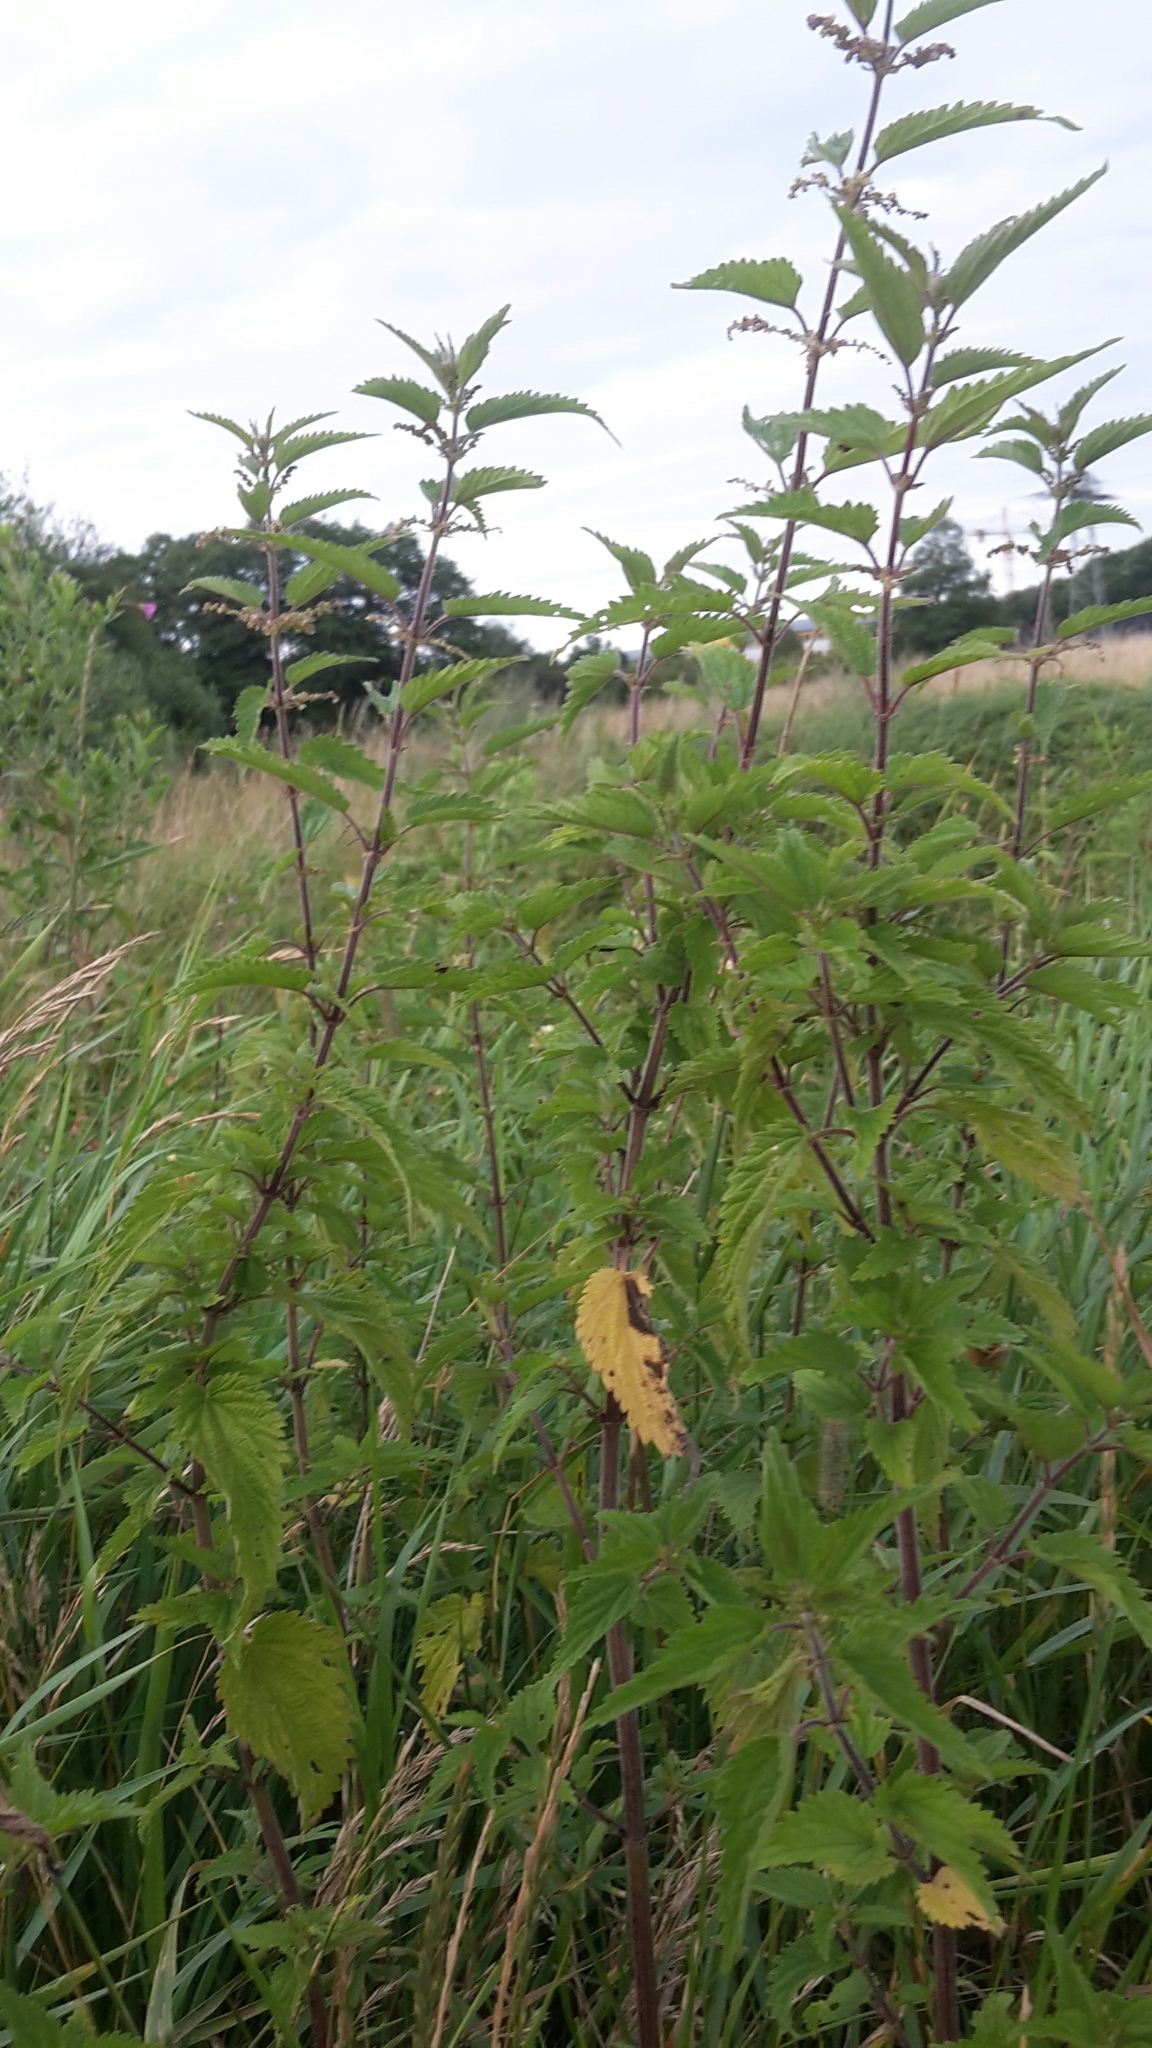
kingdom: Plantae
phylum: Tracheophyta
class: Magnoliopsida
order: Rosales
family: Urticaceae
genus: Urtica
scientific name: Urtica dioica
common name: Common nettle
